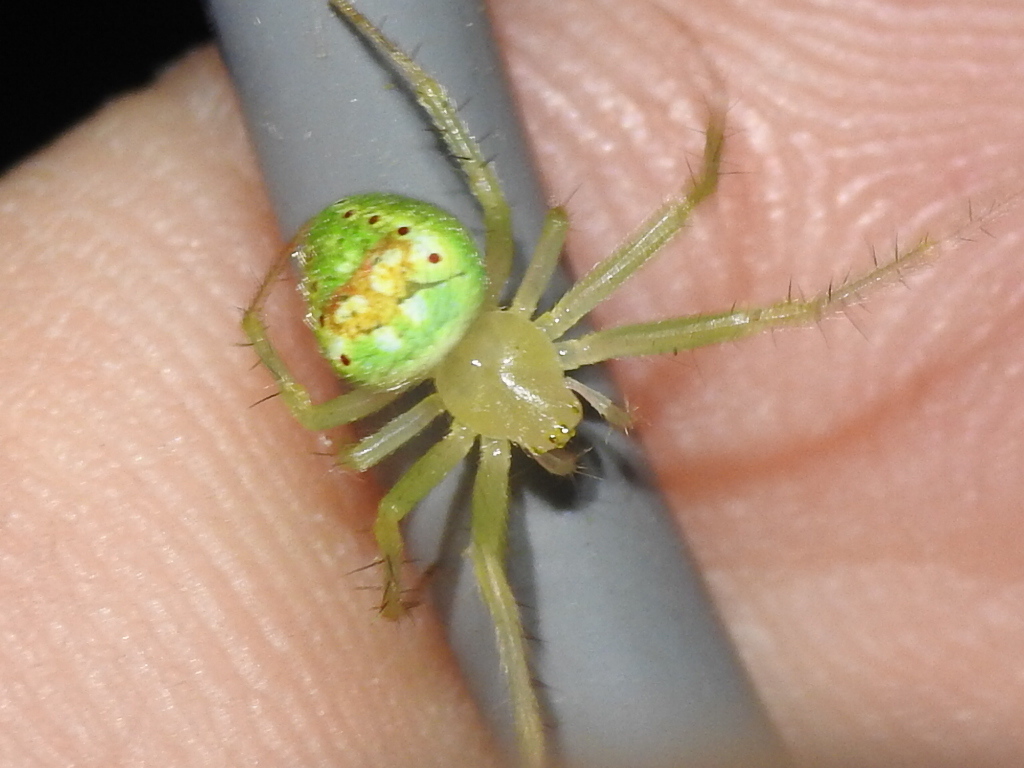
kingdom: Animalia
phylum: Arthropoda
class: Arachnida
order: Araneae
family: Araneidae
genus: Araneus
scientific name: Araneus cingulatus
